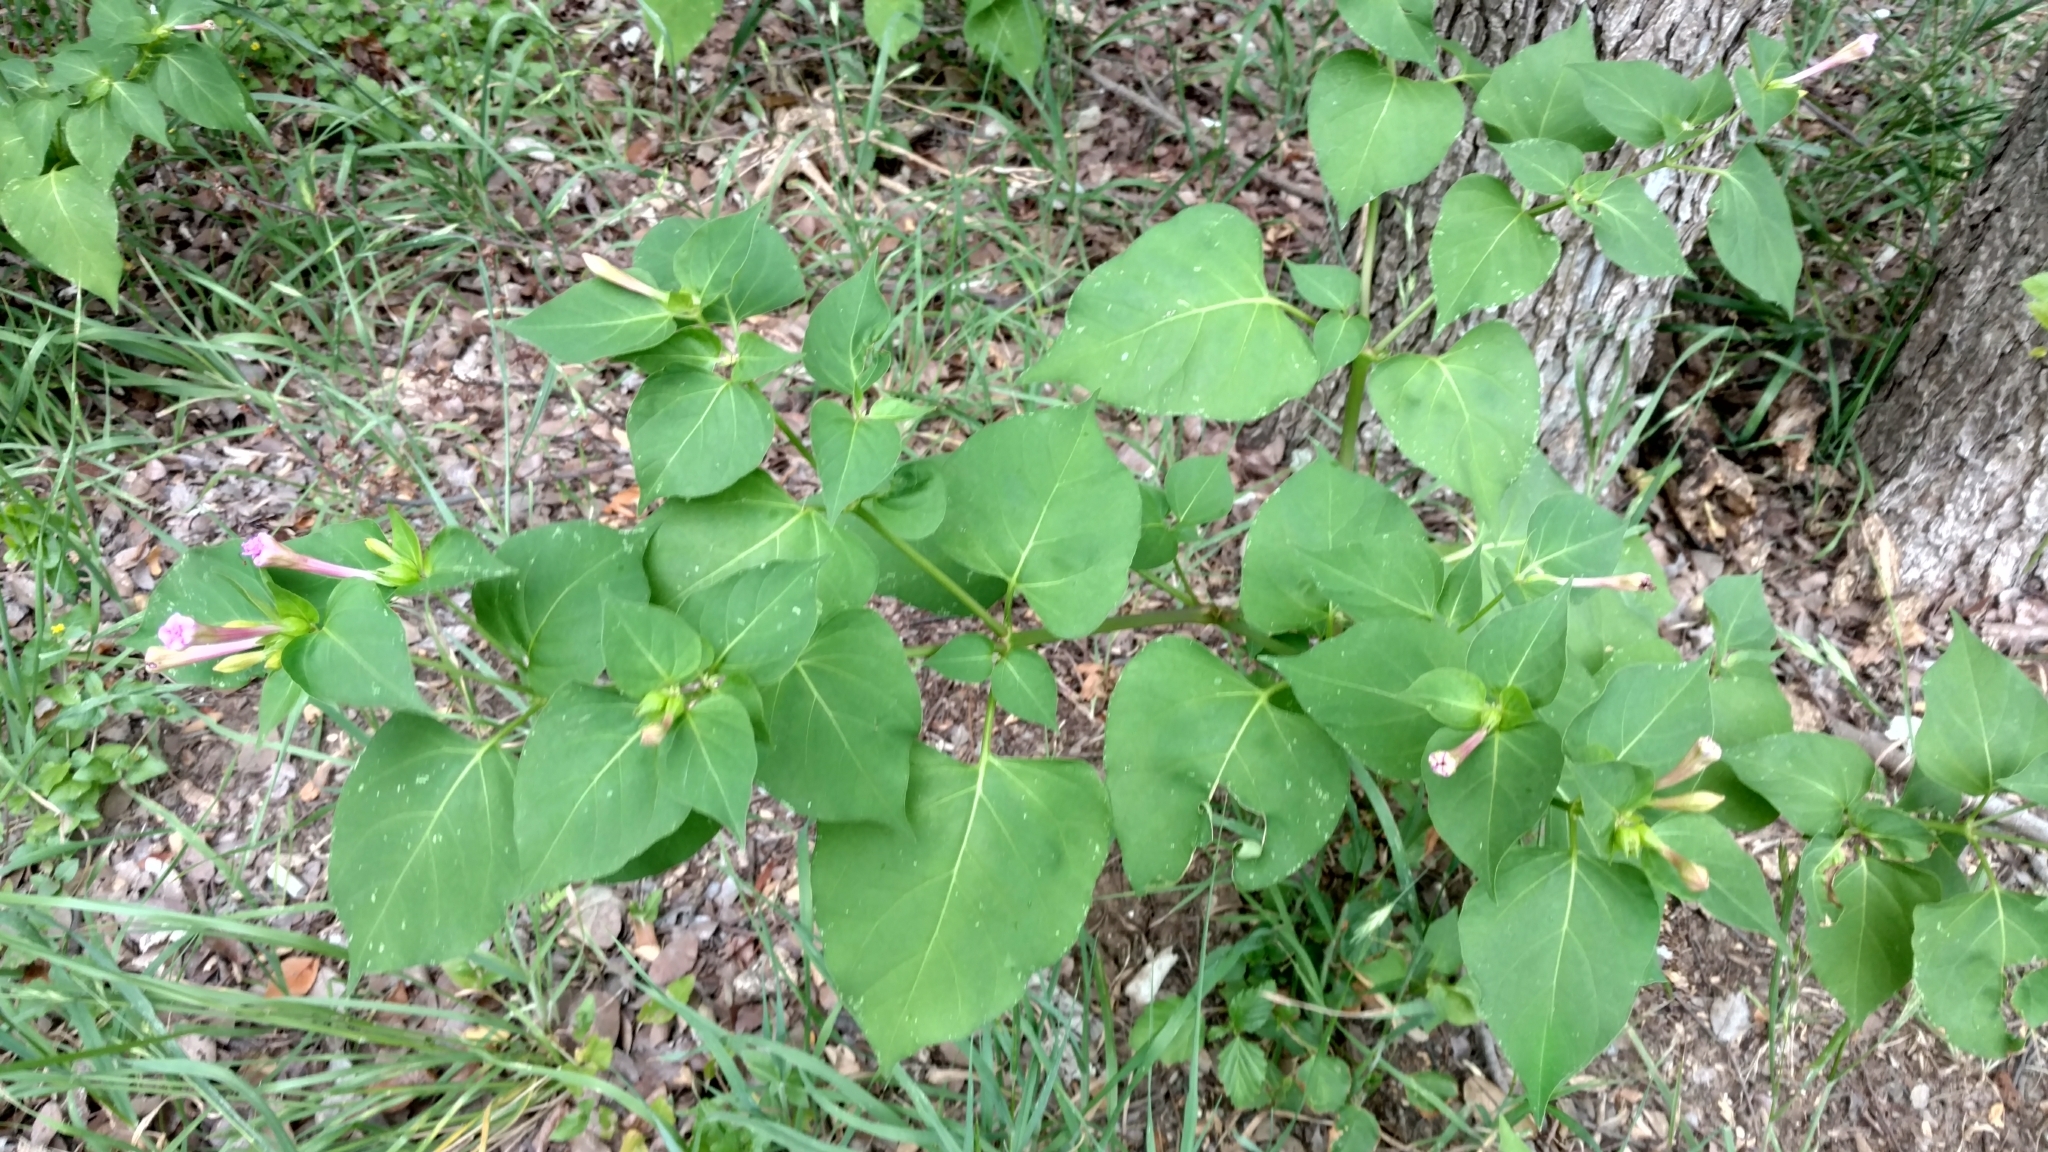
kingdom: Plantae
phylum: Tracheophyta
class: Magnoliopsida
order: Caryophyllales
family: Nyctaginaceae
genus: Mirabilis
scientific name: Mirabilis jalapa
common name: Marvel-of-peru
